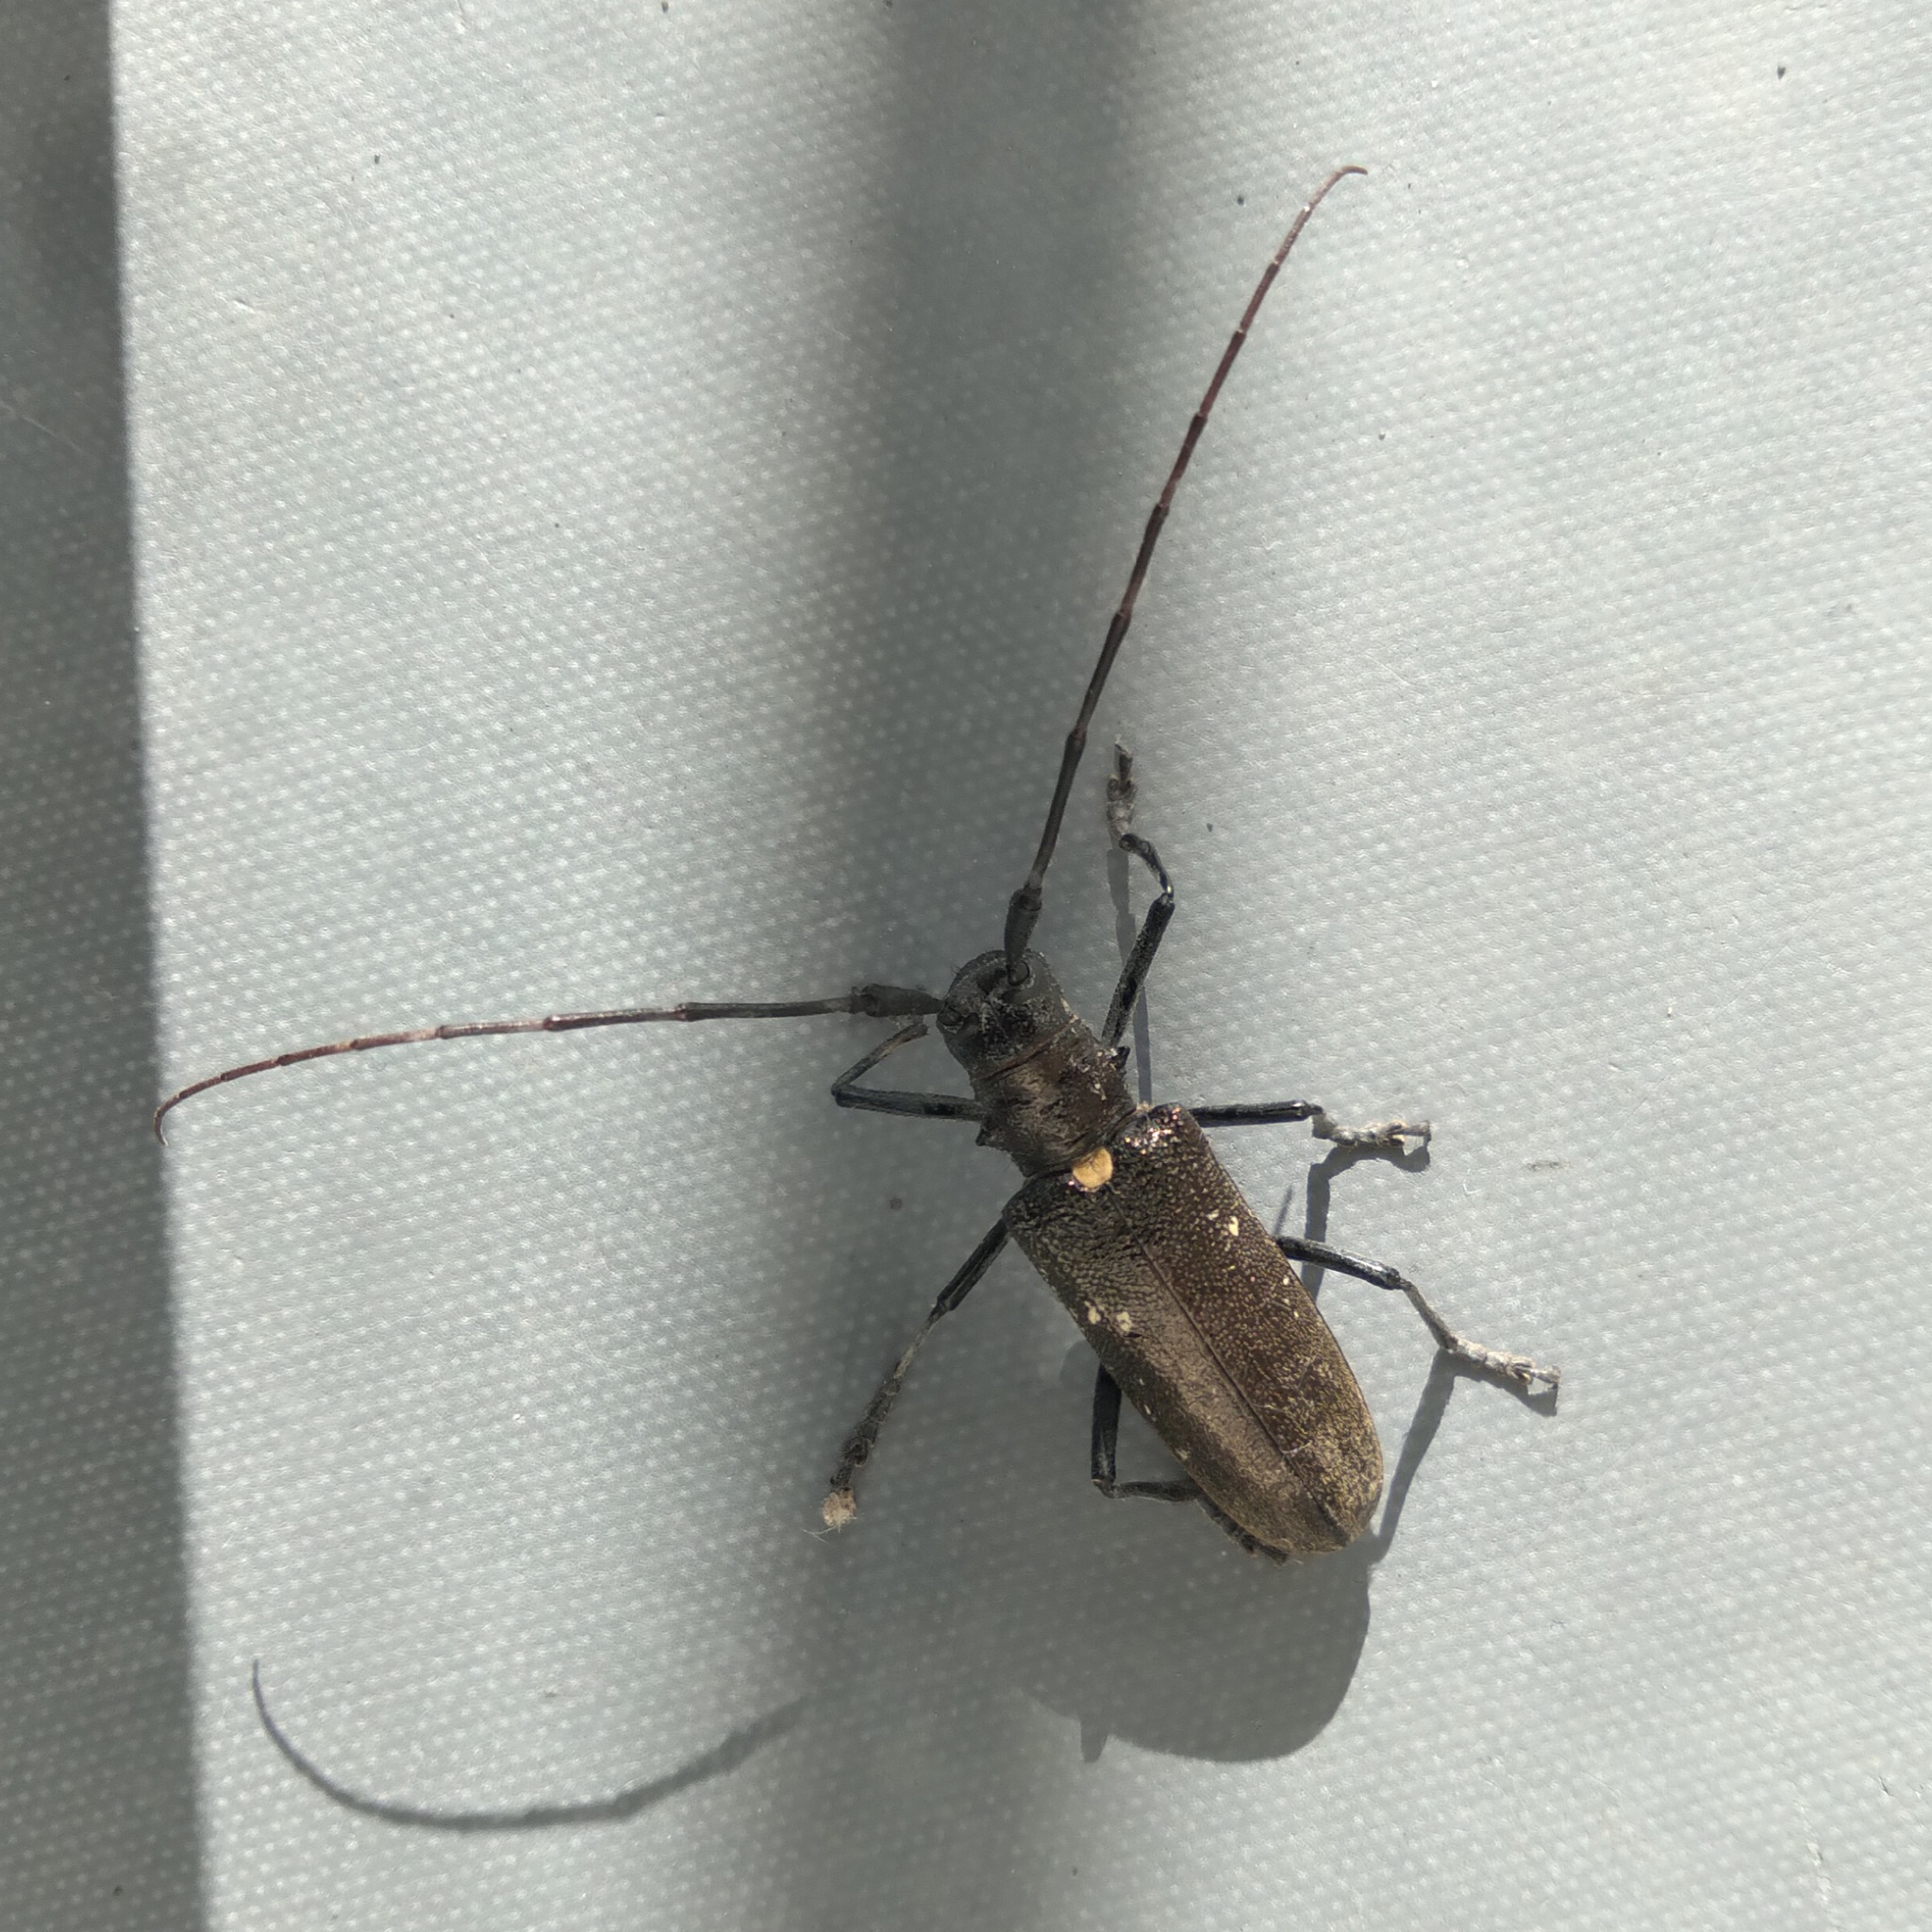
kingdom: Animalia
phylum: Arthropoda
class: Insecta
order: Coleoptera
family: Cerambycidae
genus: Monochamus
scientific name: Monochamus sartor
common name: Pine sawyer
